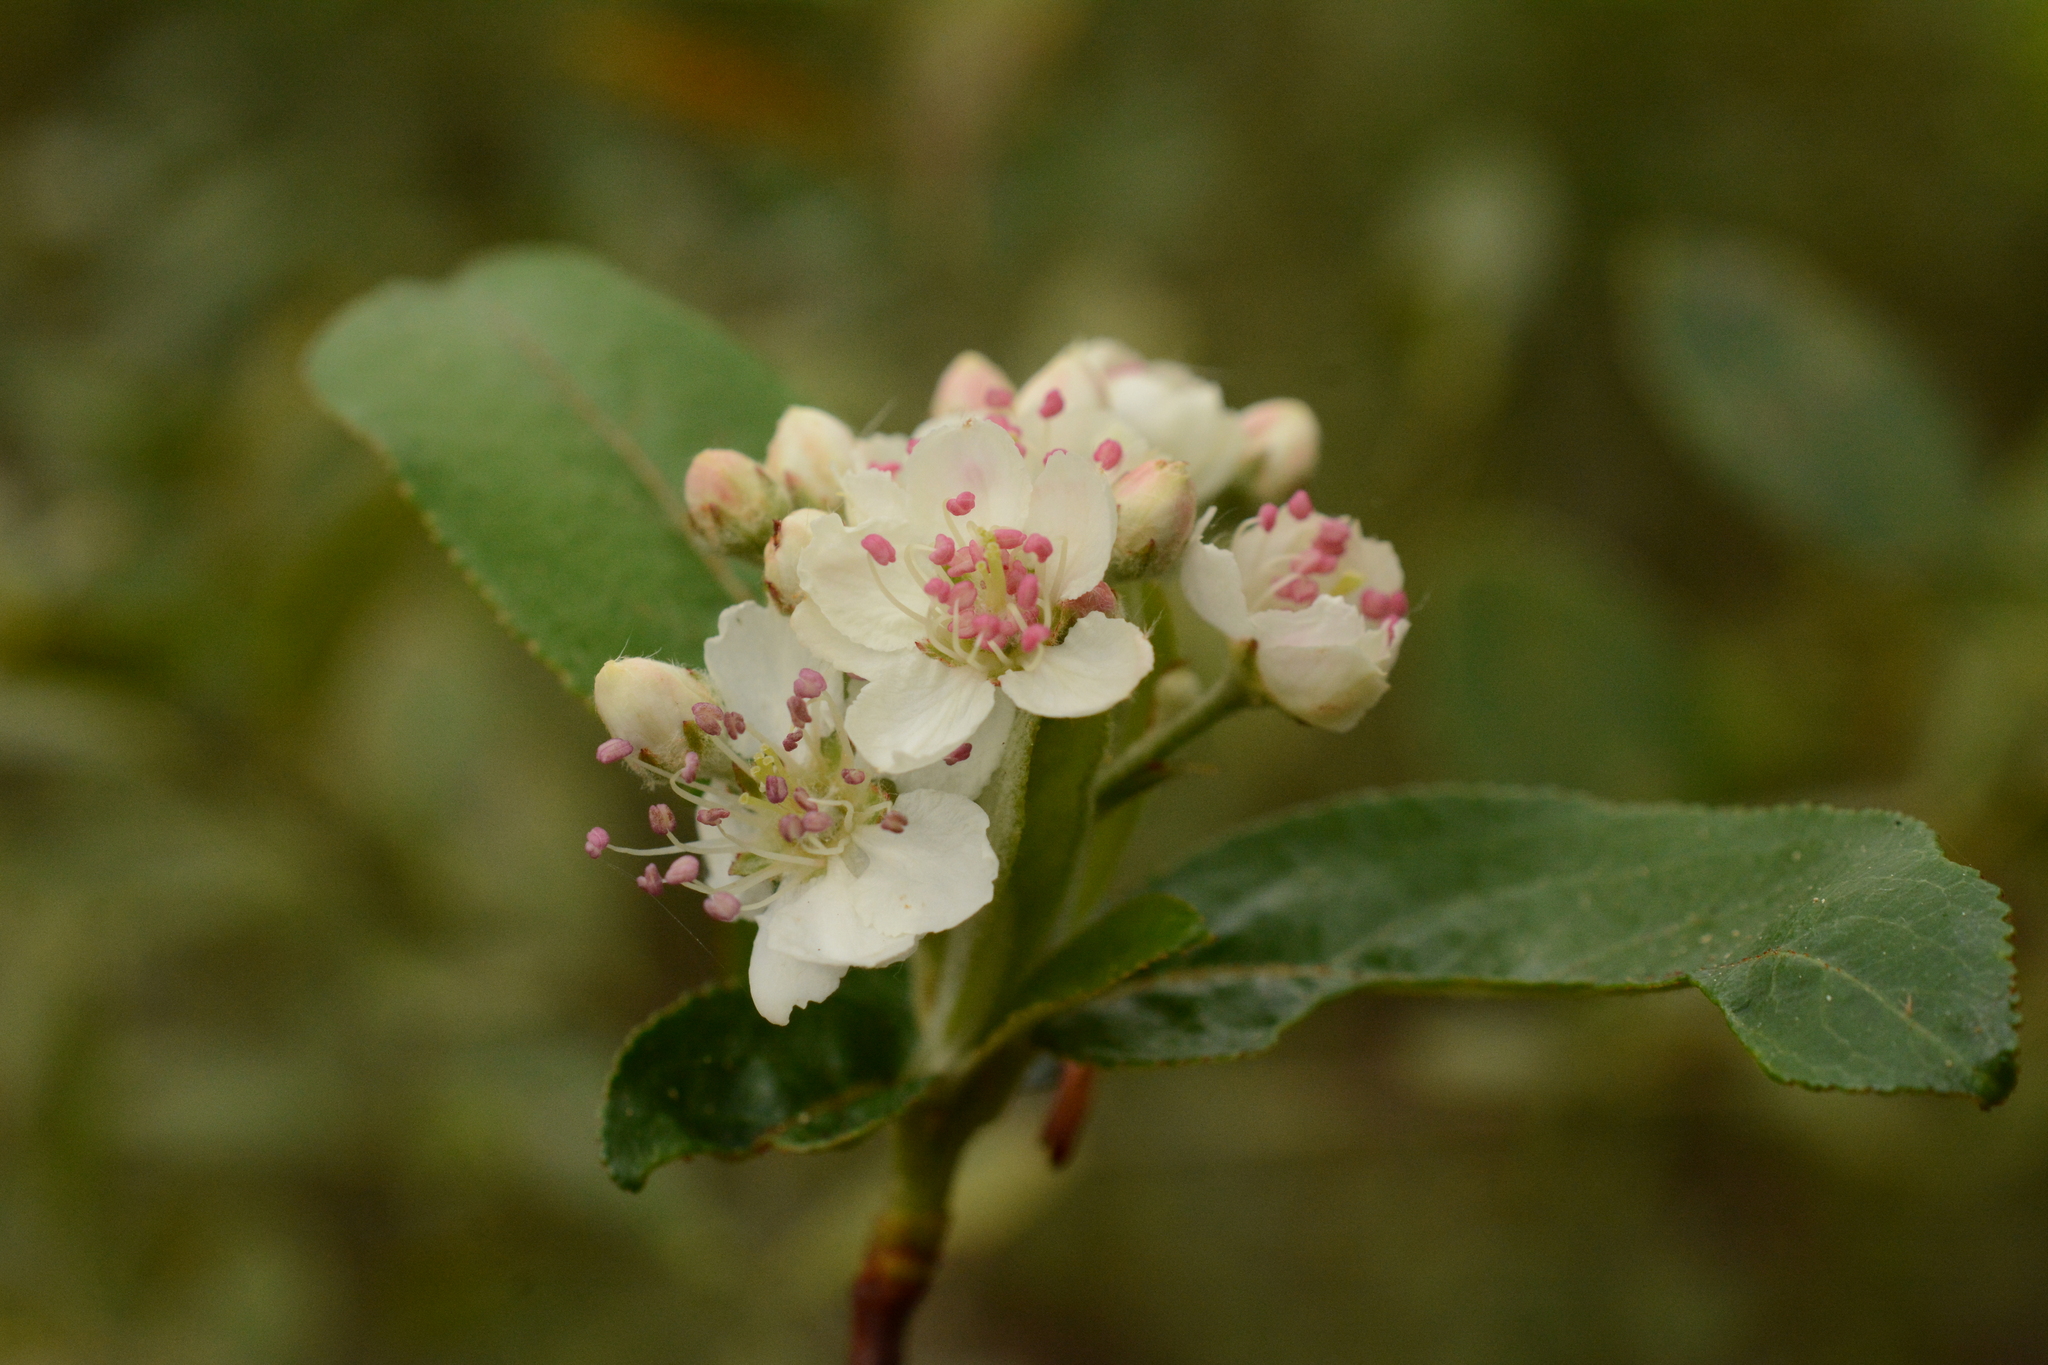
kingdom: Plantae
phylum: Tracheophyta
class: Magnoliopsida
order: Rosales
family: Rosaceae
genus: Aronia
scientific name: Aronia arbutifolia
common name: Red chokeberry
